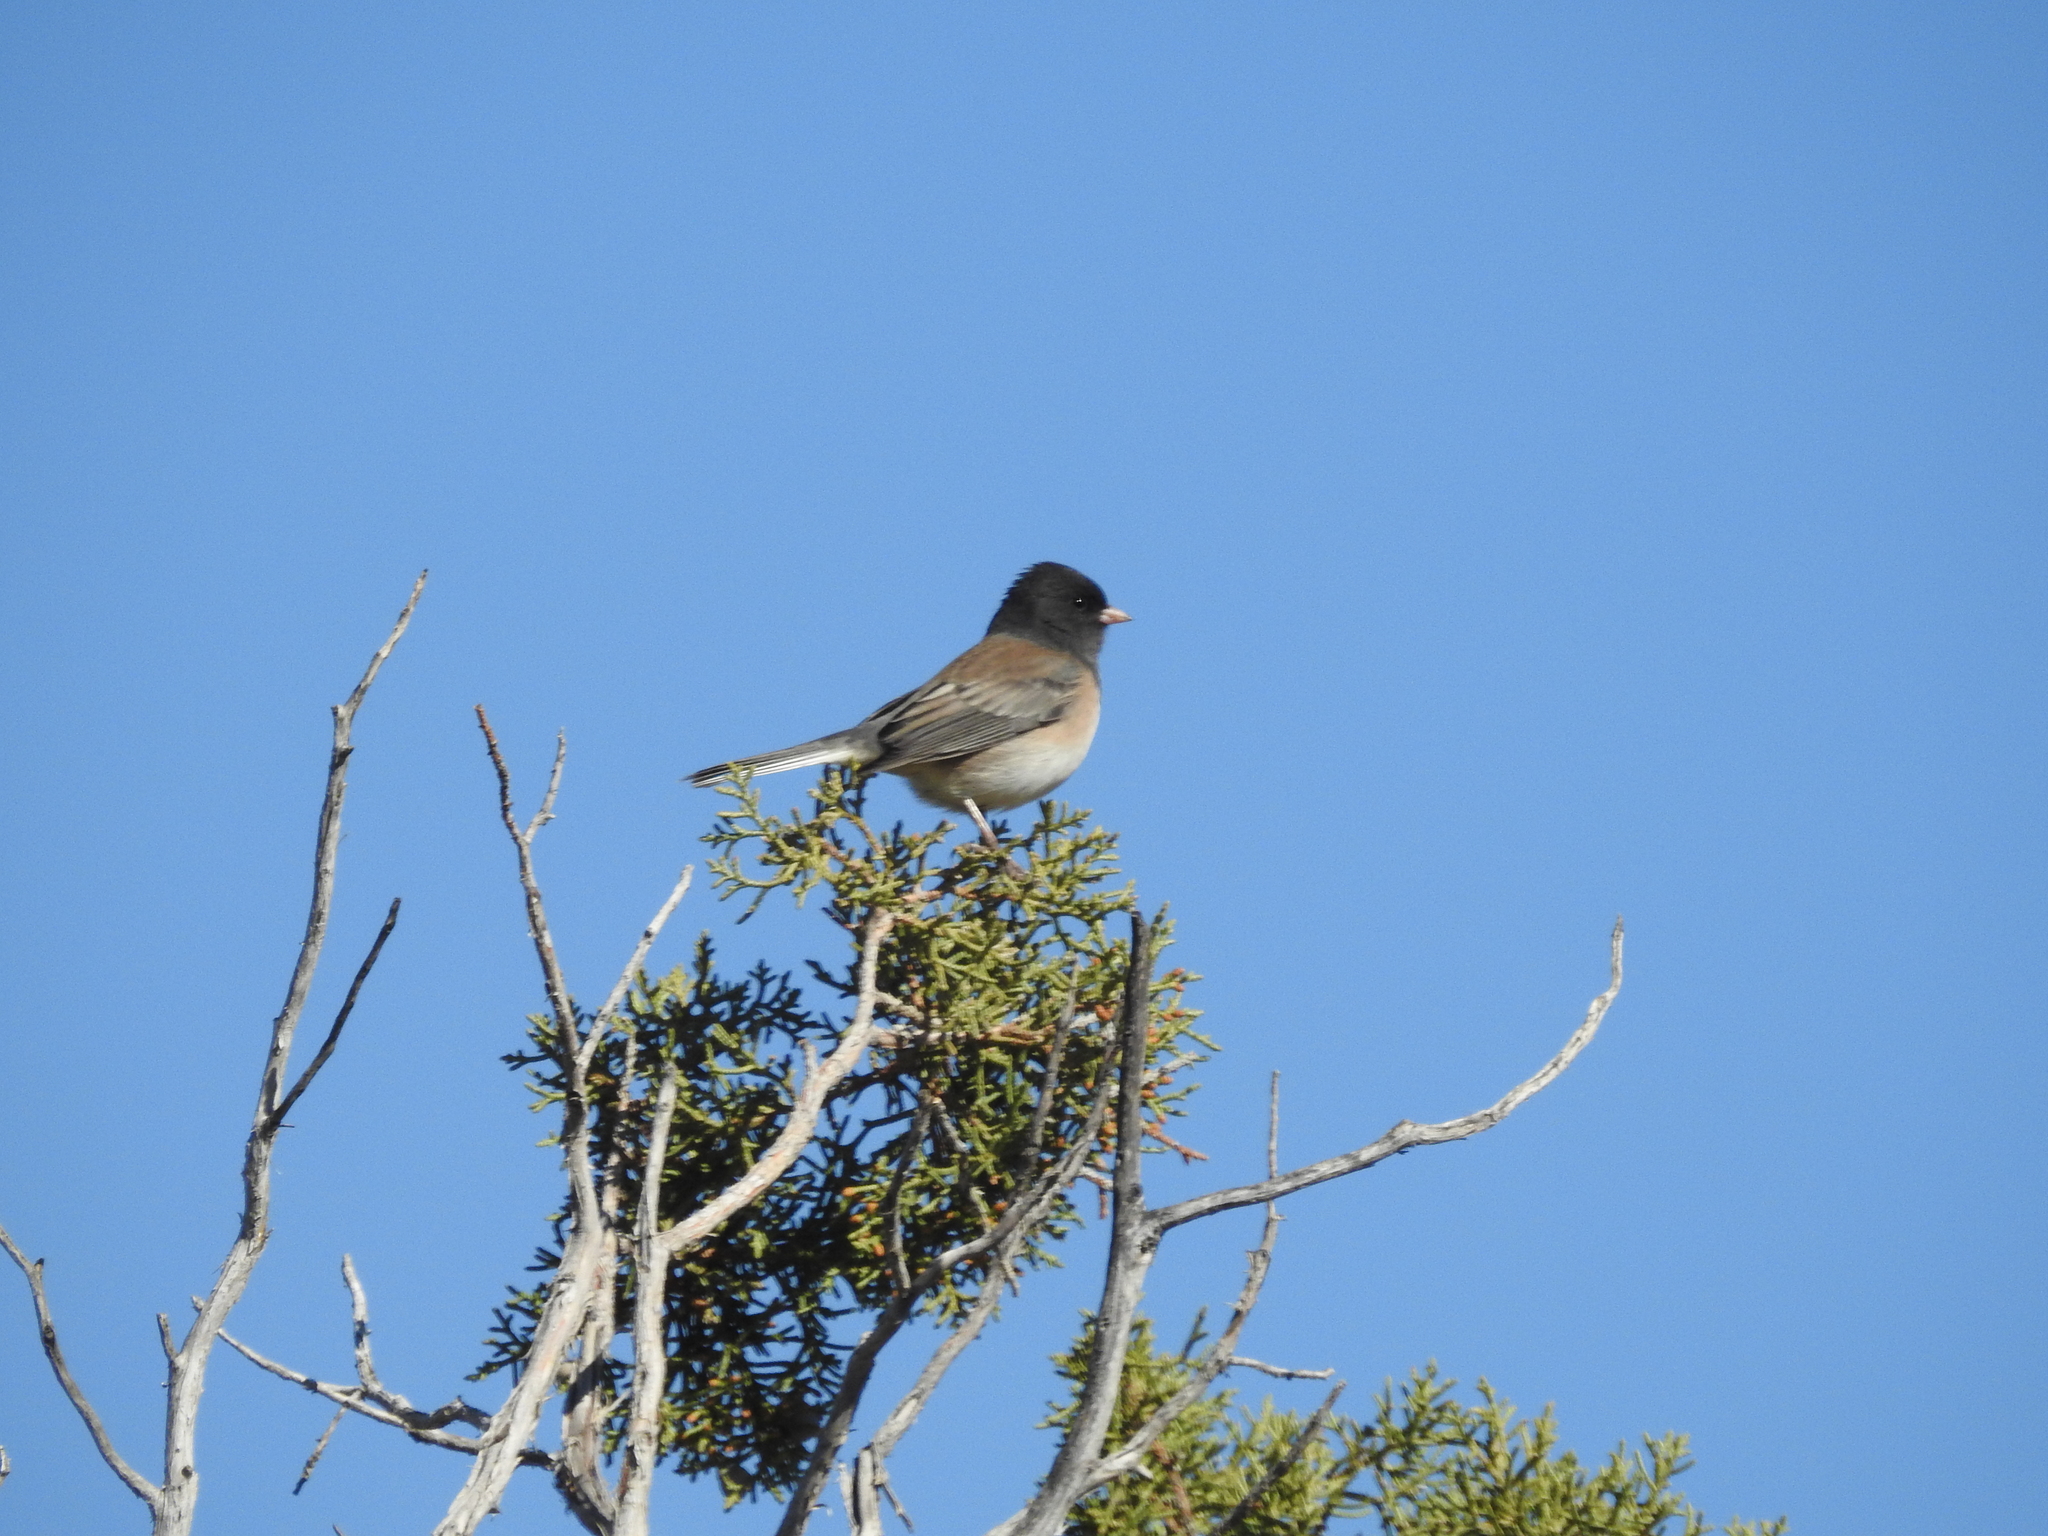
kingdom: Animalia
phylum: Chordata
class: Aves
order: Passeriformes
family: Passerellidae
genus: Junco
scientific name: Junco hyemalis
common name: Dark-eyed junco
